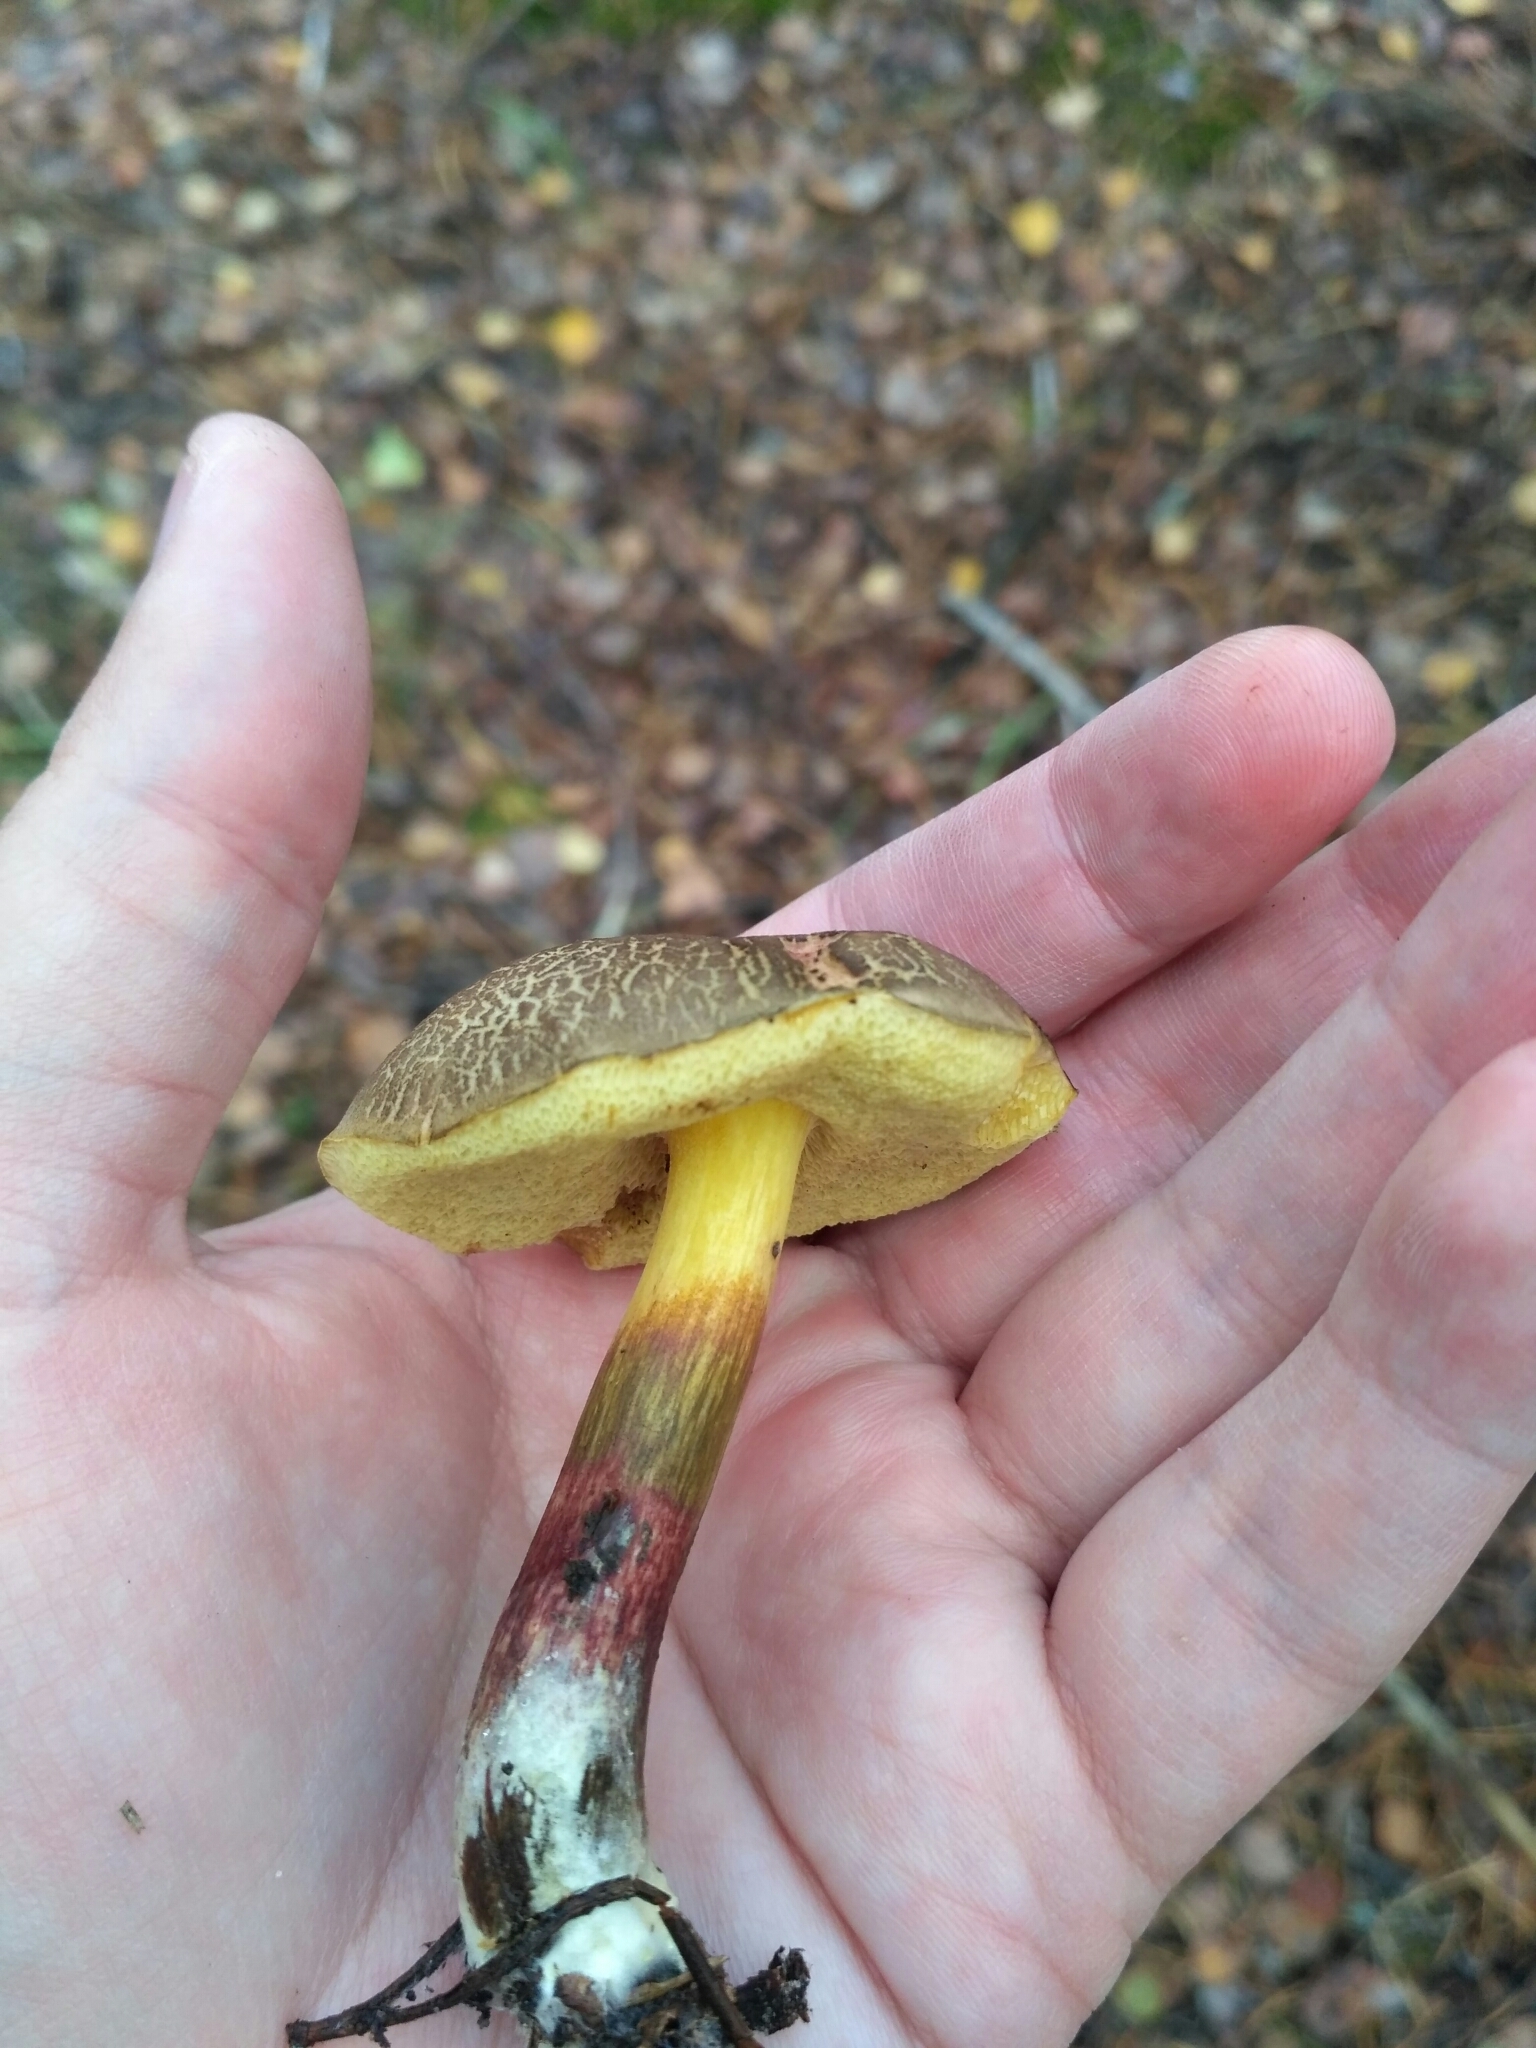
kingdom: Fungi
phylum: Basidiomycota
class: Agaricomycetes
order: Boletales
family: Boletaceae
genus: Xerocomellus
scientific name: Xerocomellus chrysenteron
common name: Red-cracking bolete
